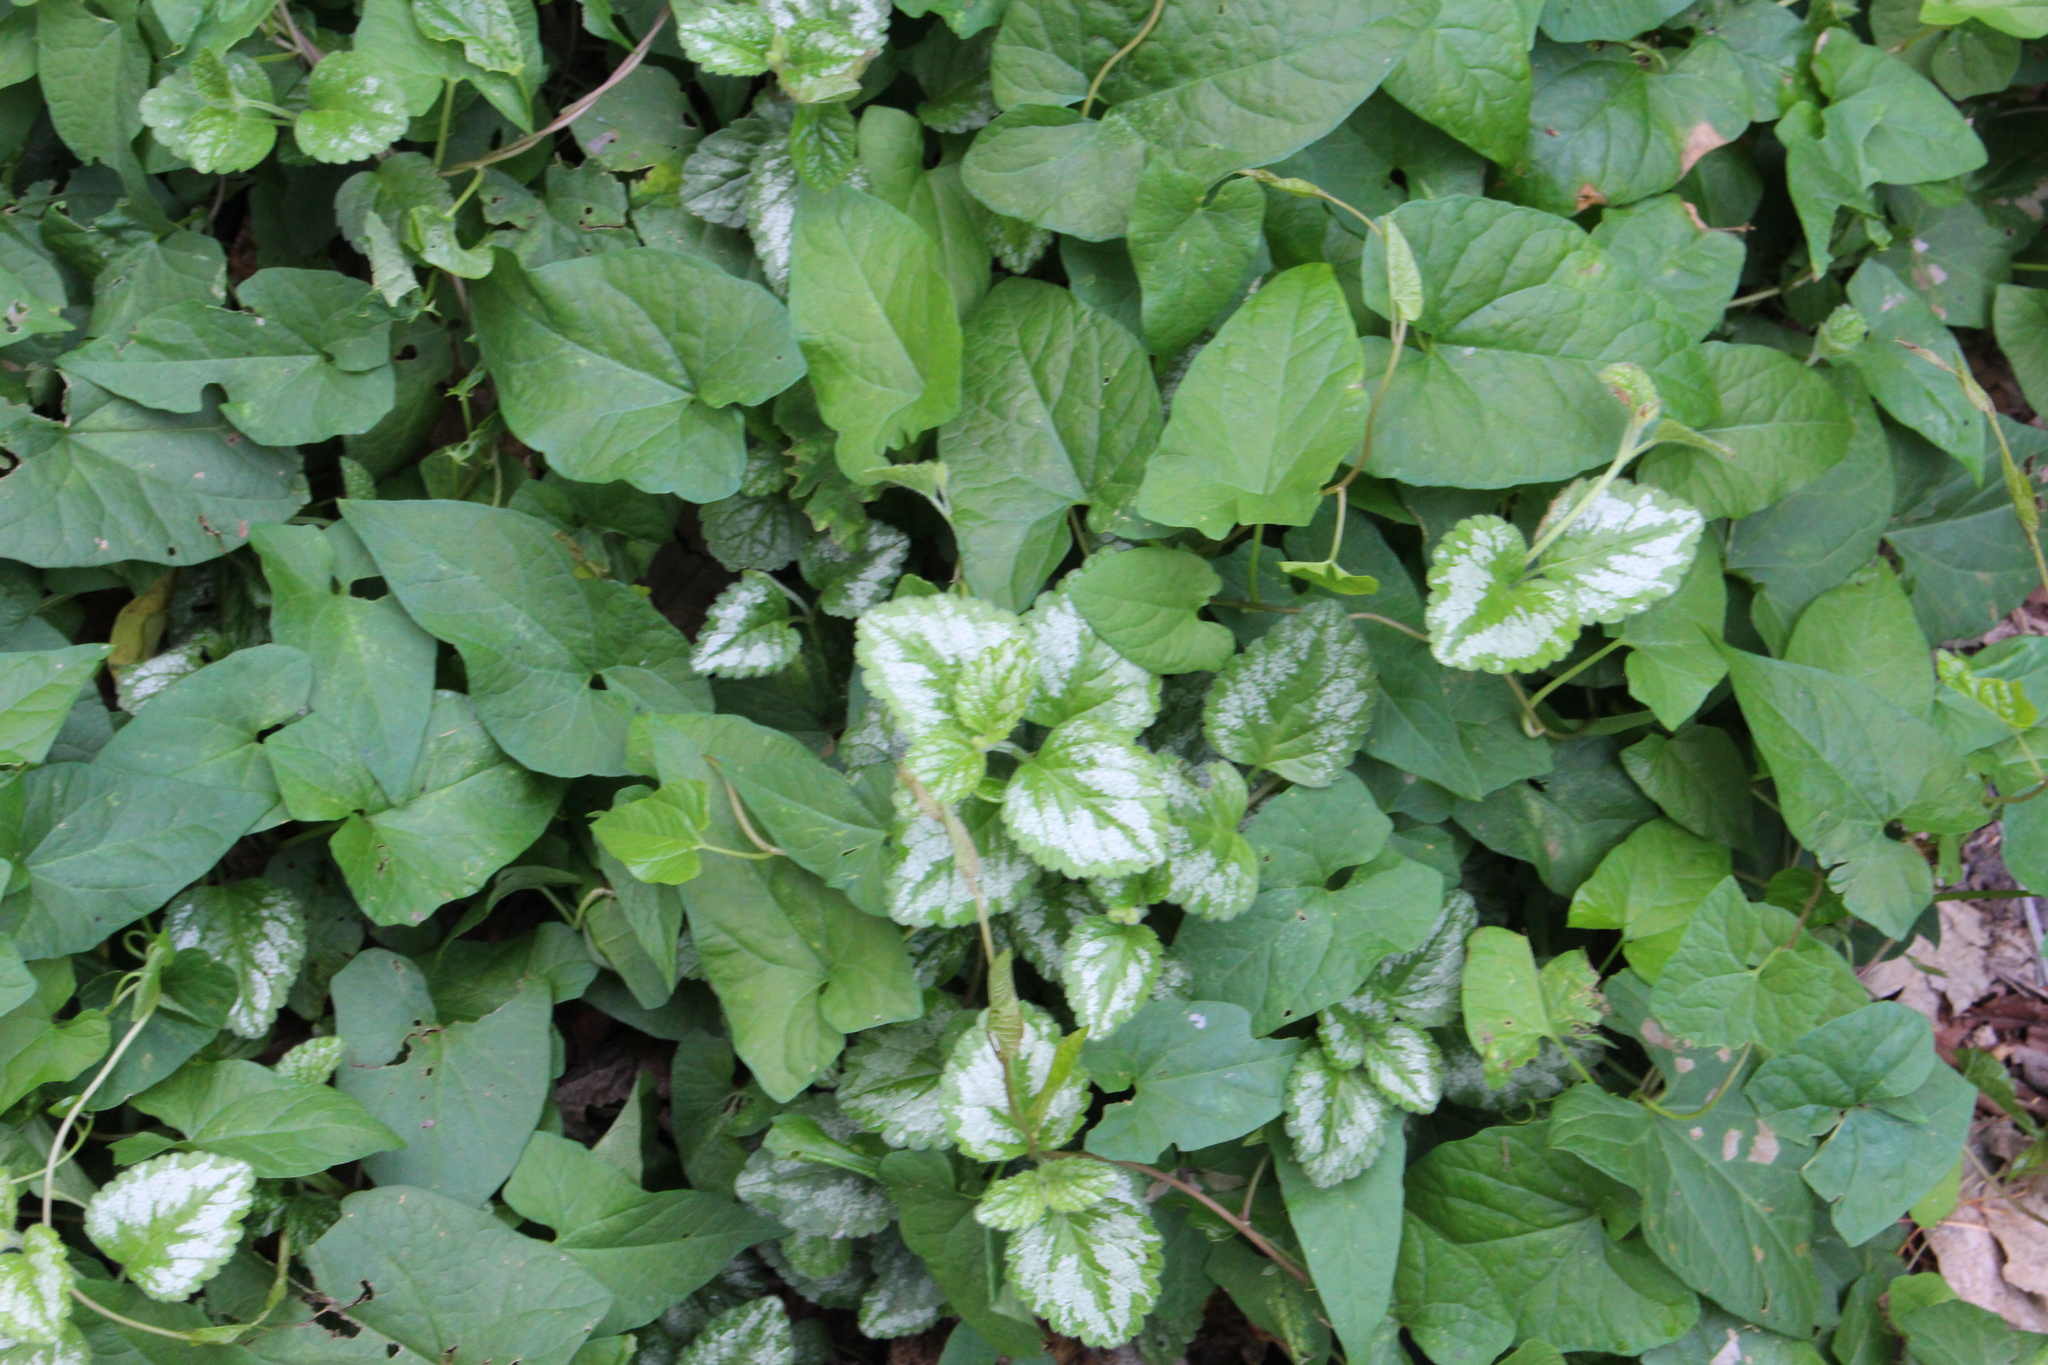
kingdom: Plantae
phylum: Tracheophyta
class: Magnoliopsida
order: Lamiales
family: Lamiaceae
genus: Lamium
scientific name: Lamium galeobdolon
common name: Yellow archangel
